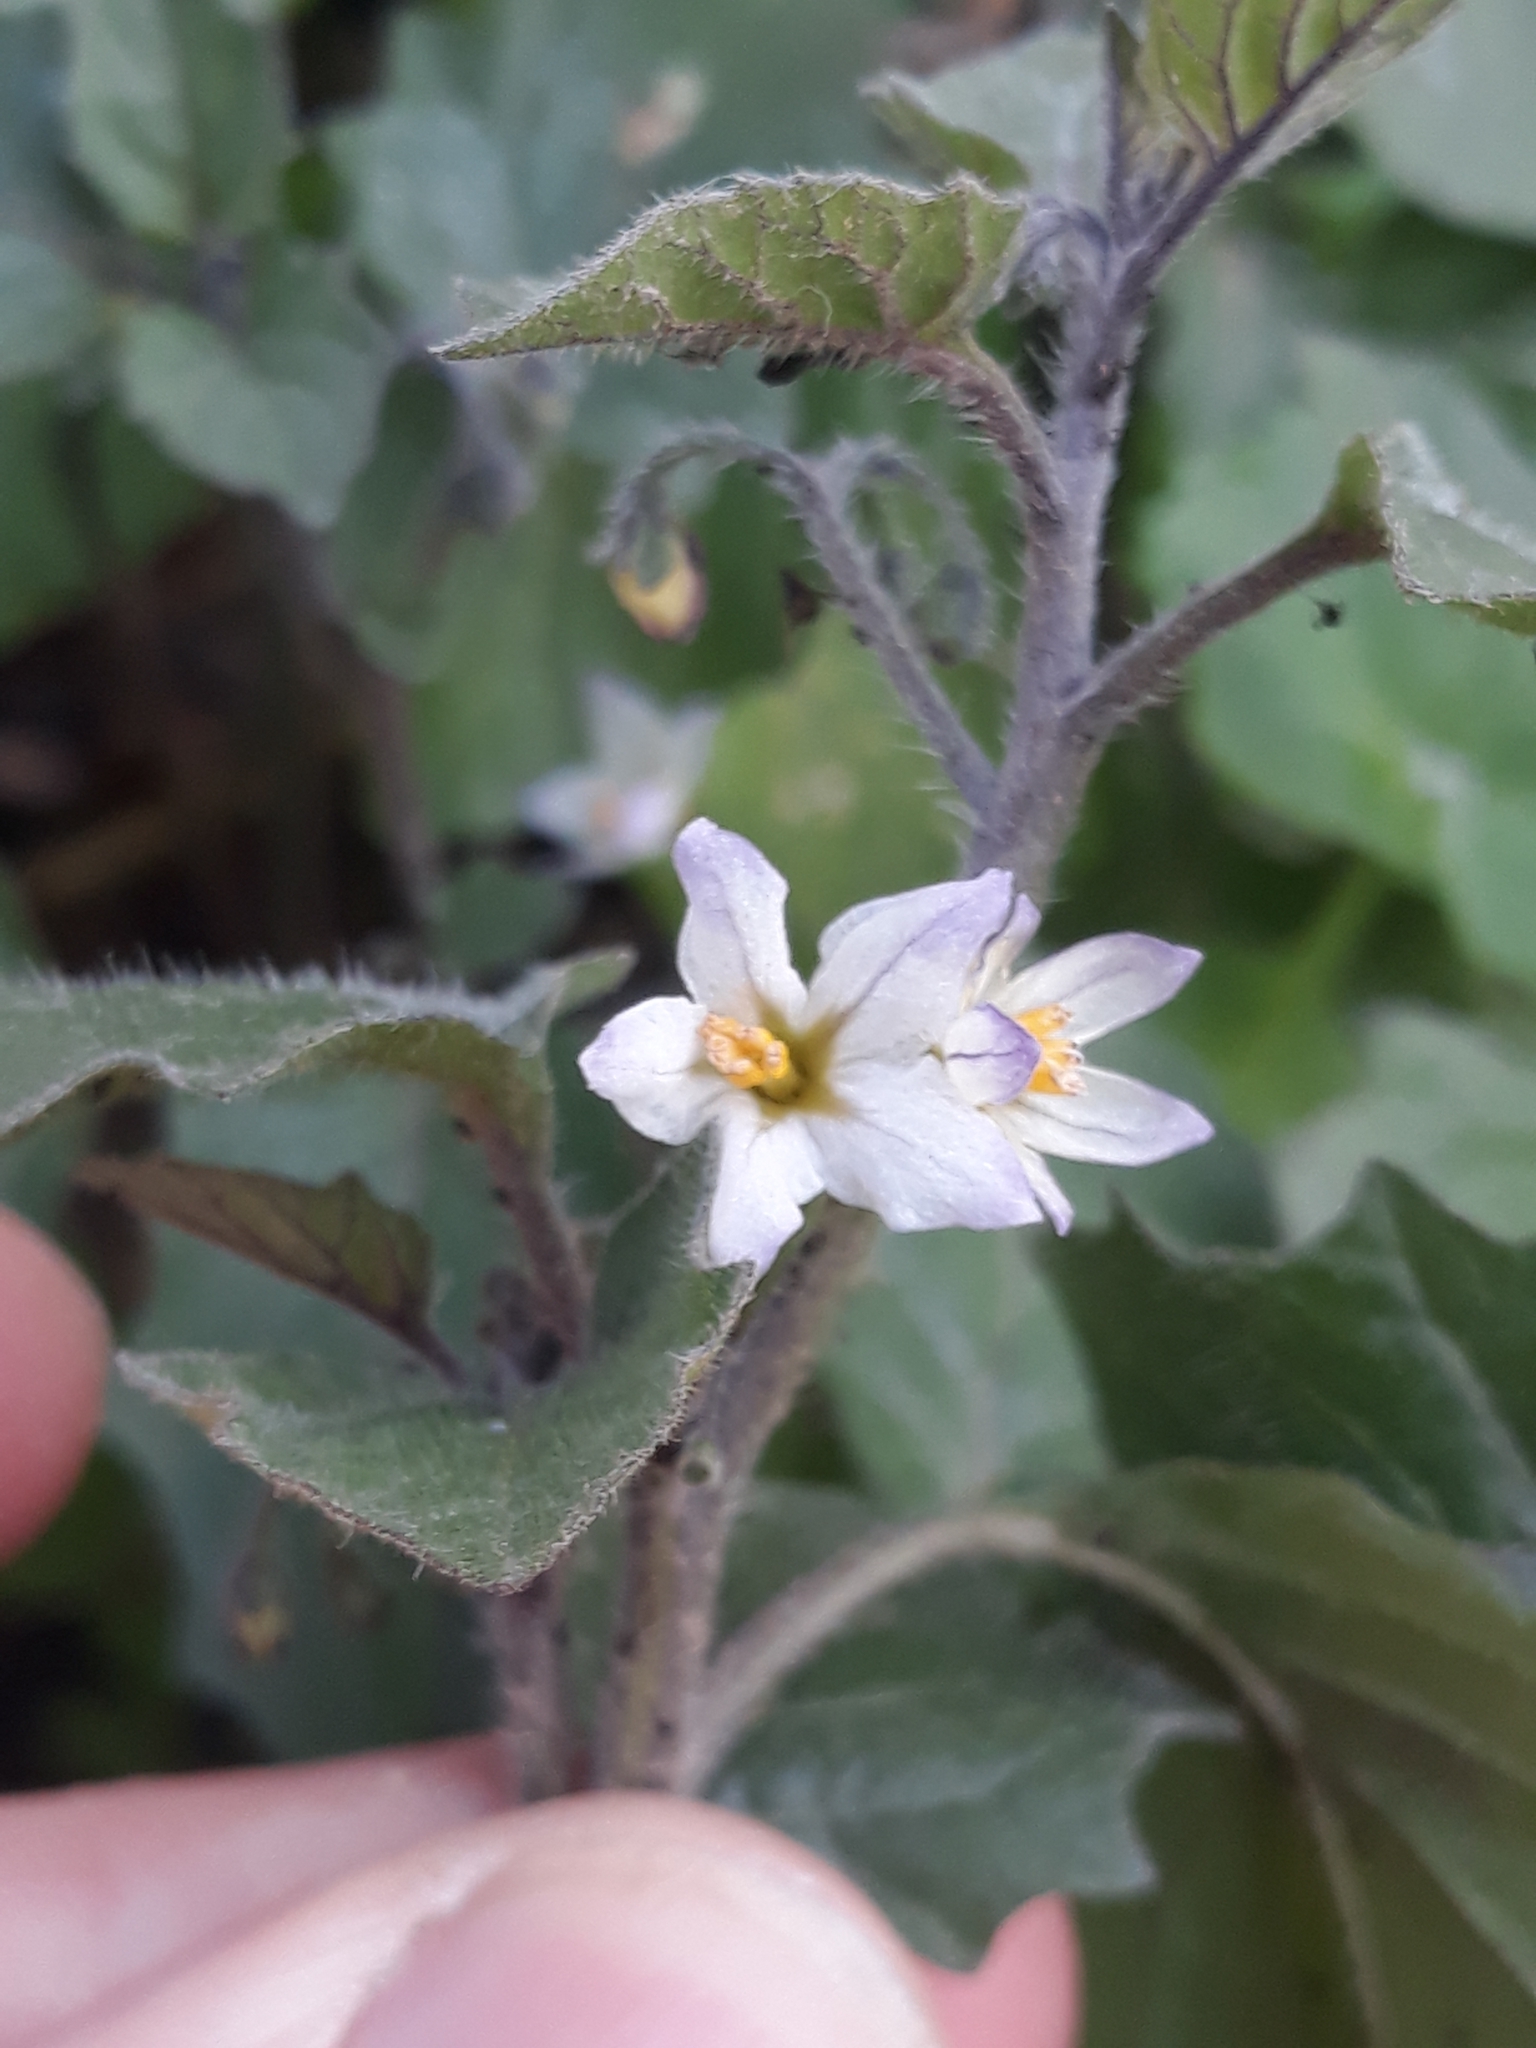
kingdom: Plantae
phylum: Tracheophyta
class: Magnoliopsida
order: Solanales
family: Solanaceae
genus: Solanum
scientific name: Solanum villosum
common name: Red nightshade
